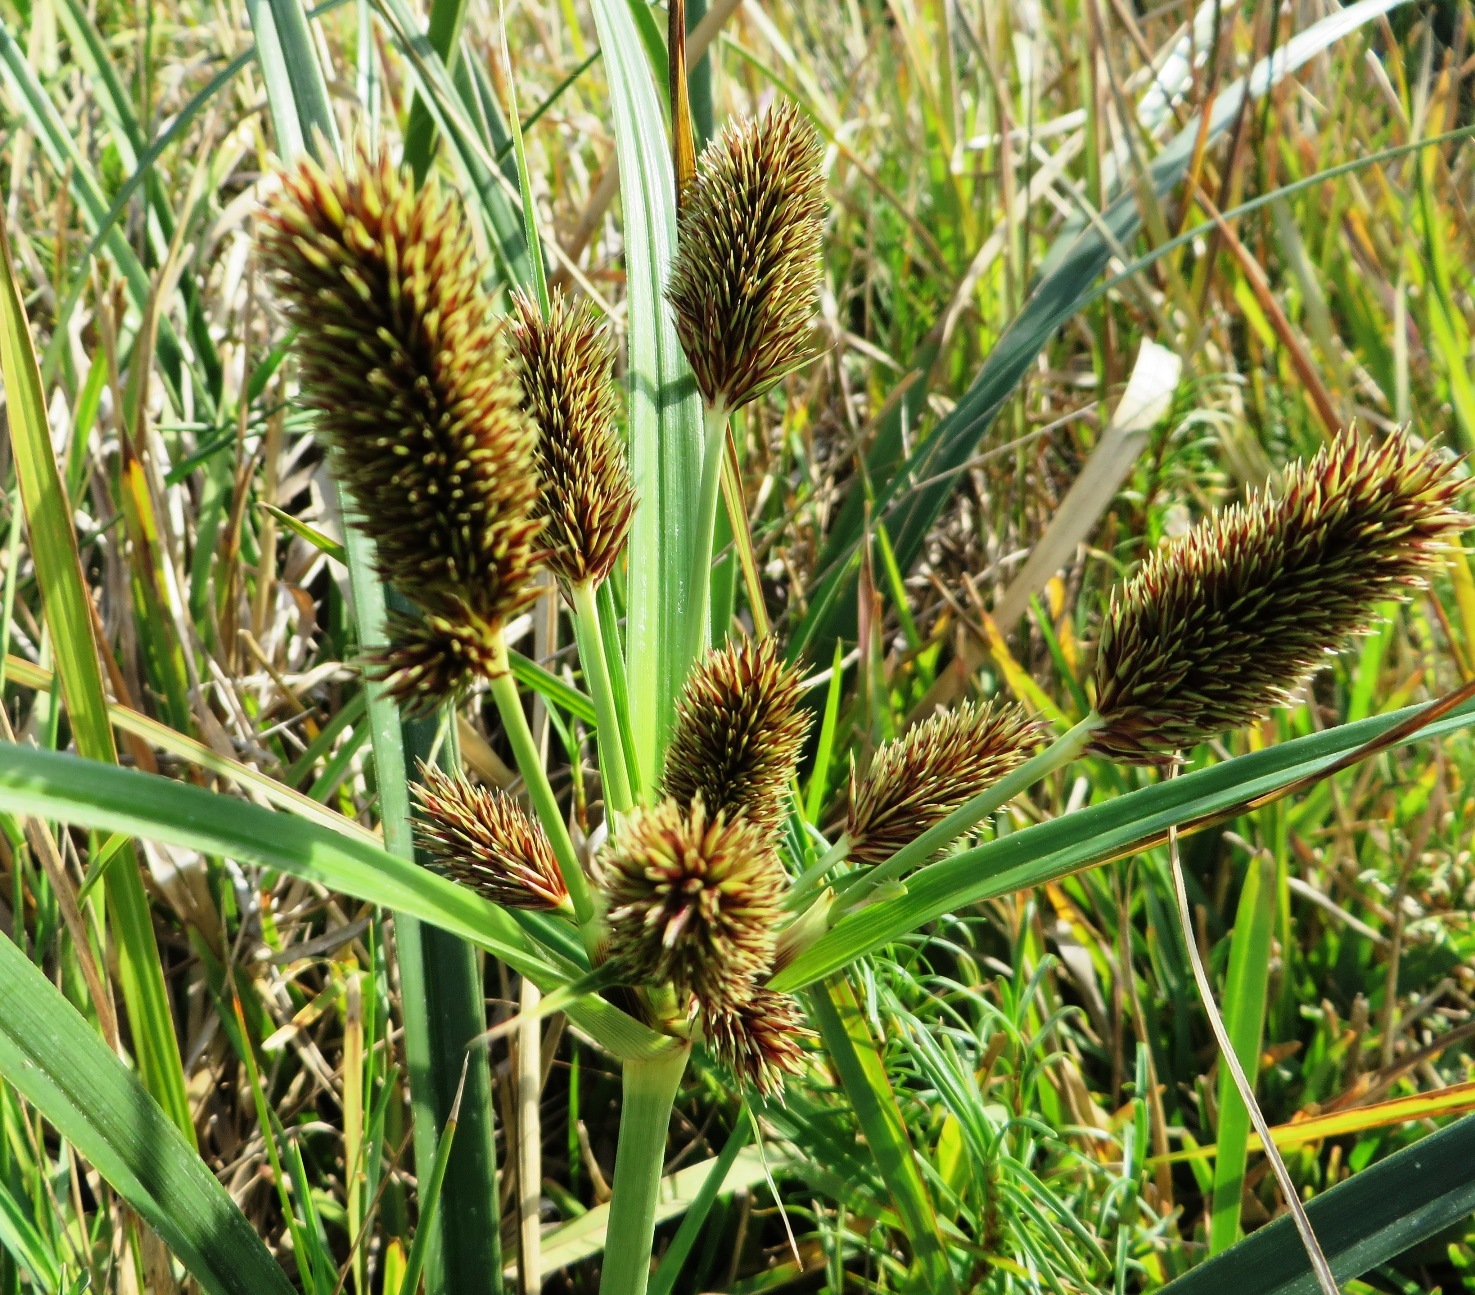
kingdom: Plantae
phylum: Tracheophyta
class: Liliopsida
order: Poales
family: Cyperaceae
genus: Cyperus
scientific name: Cyperus thunbergii
